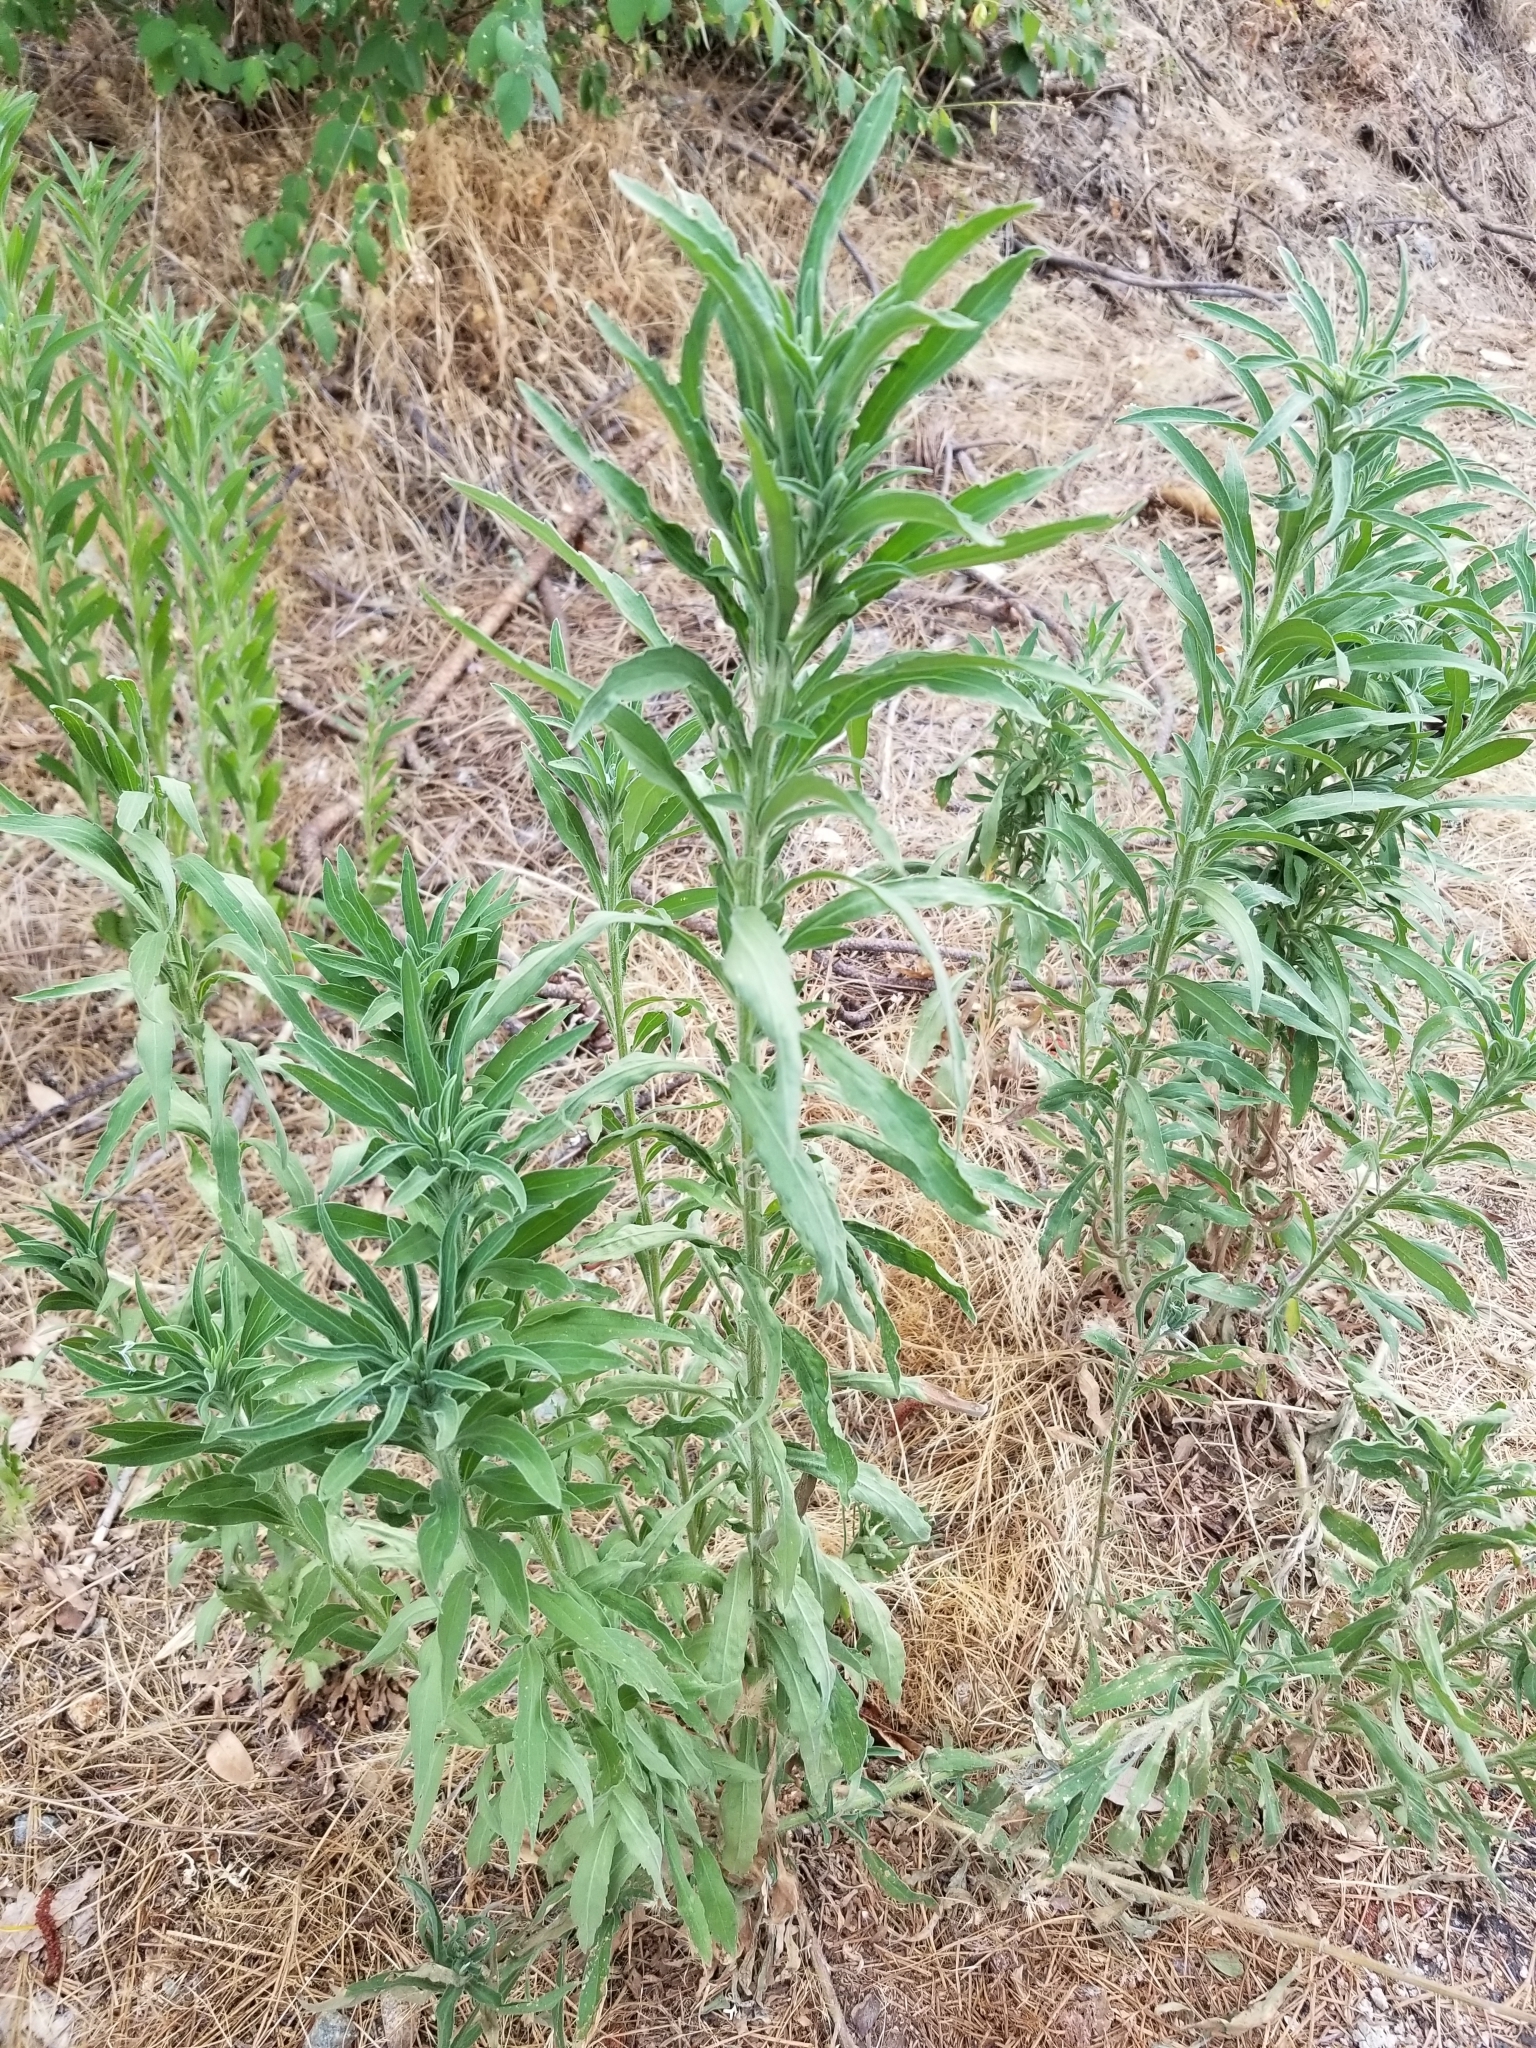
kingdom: Plantae
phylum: Tracheophyta
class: Magnoliopsida
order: Asterales
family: Asteraceae
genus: Erigeron
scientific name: Erigeron bonariensis
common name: Argentine fleabane
